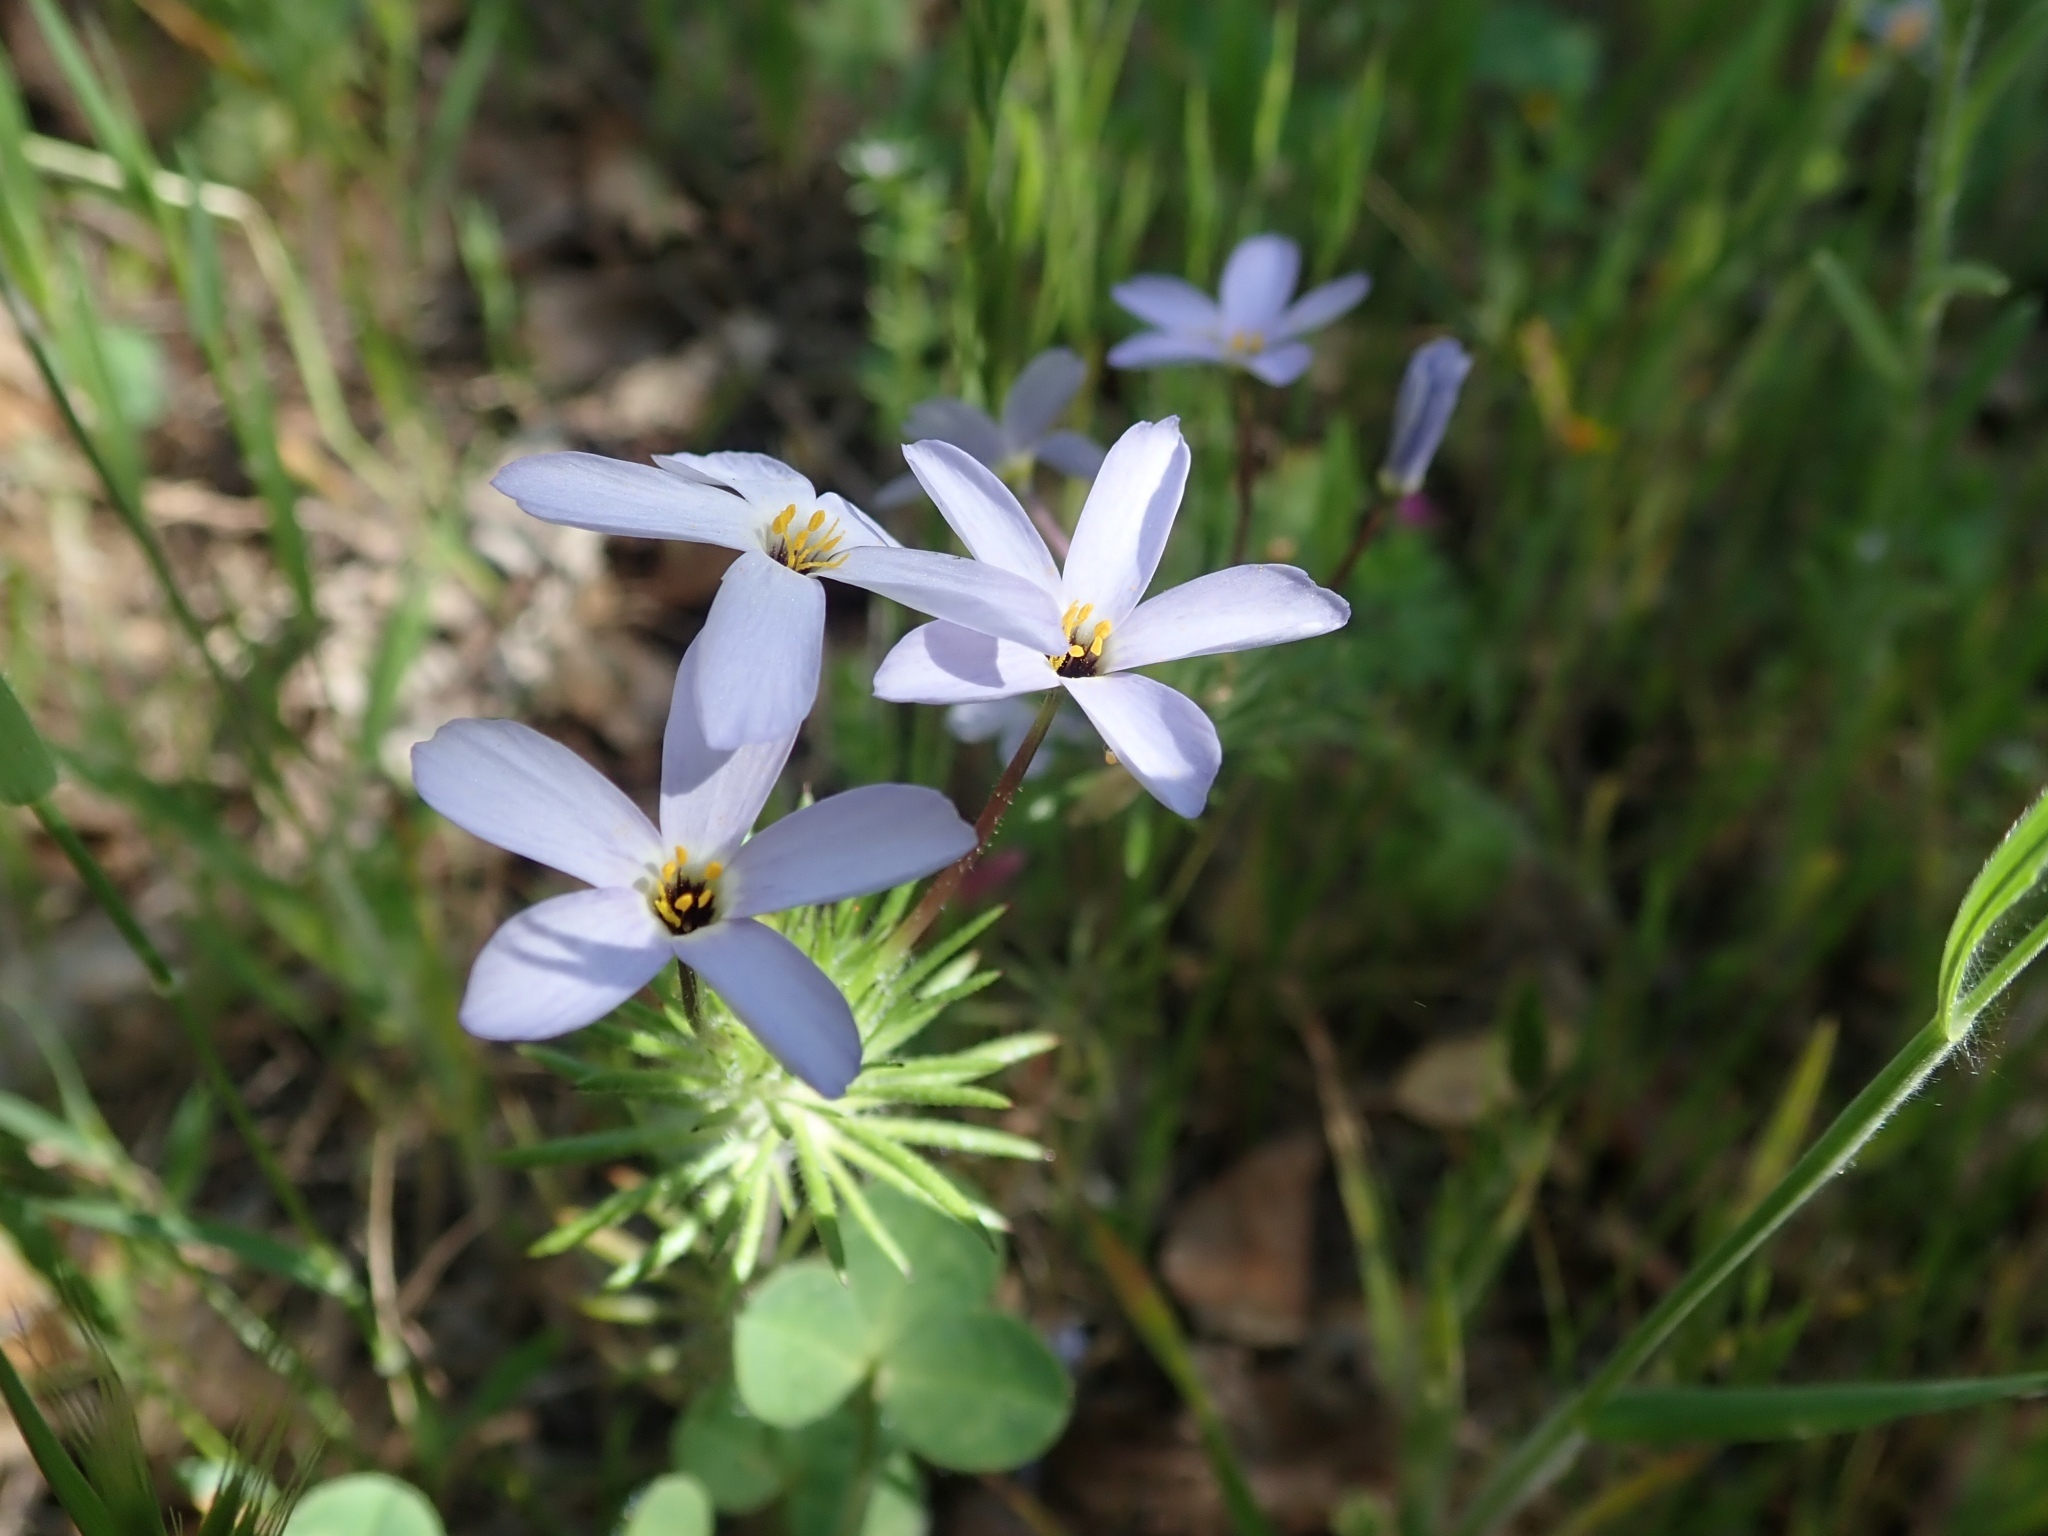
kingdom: Plantae
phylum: Tracheophyta
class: Magnoliopsida
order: Ericales
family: Polemoniaceae
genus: Leptosiphon
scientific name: Leptosiphon androsaceus
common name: False babystars
